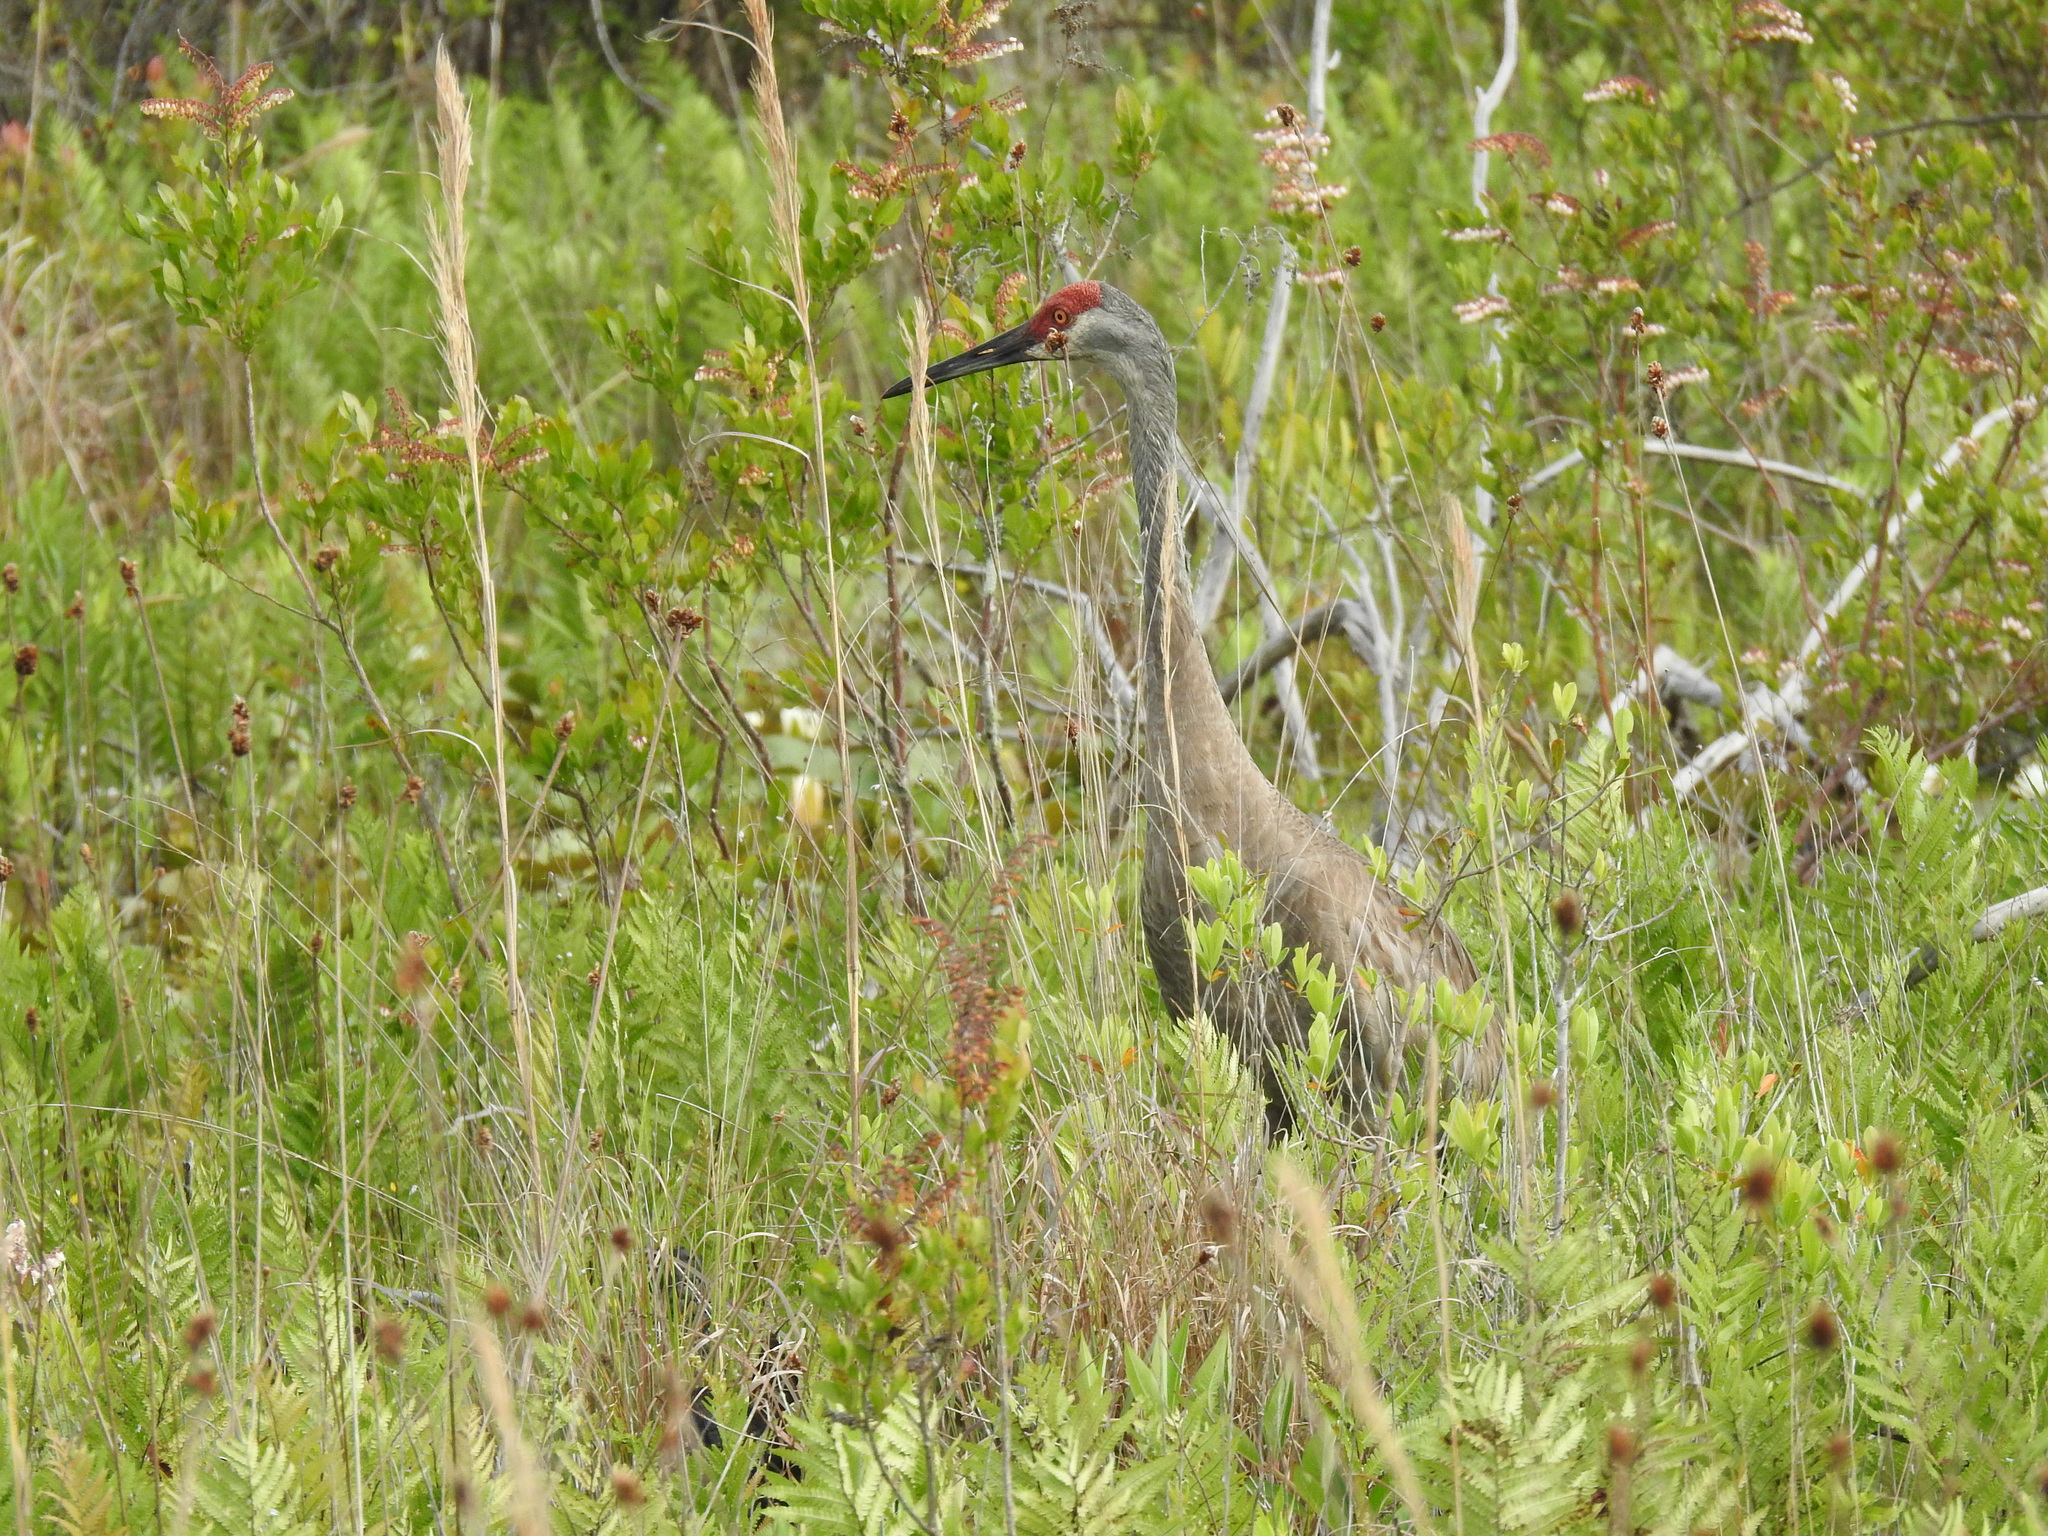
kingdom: Animalia
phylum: Chordata
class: Aves
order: Gruiformes
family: Gruidae
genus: Grus
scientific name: Grus canadensis
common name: Sandhill crane
